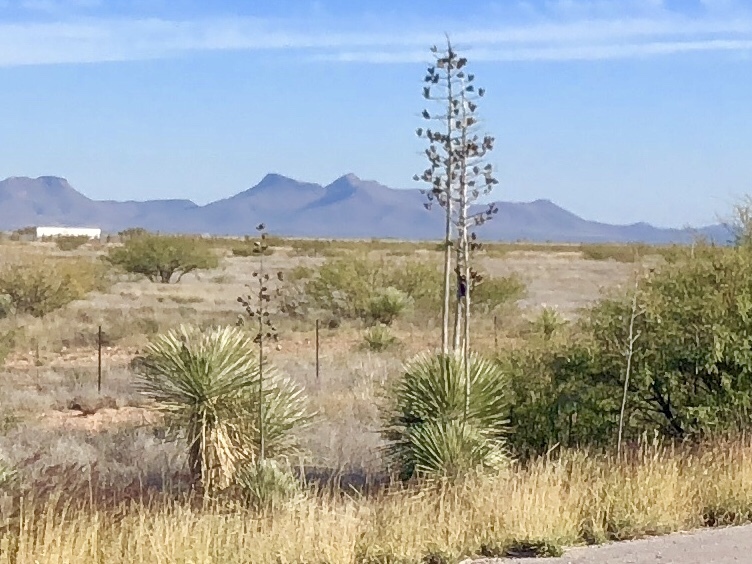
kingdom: Plantae
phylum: Tracheophyta
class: Liliopsida
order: Asparagales
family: Asparagaceae
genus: Yucca
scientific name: Yucca elata
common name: Palmella
